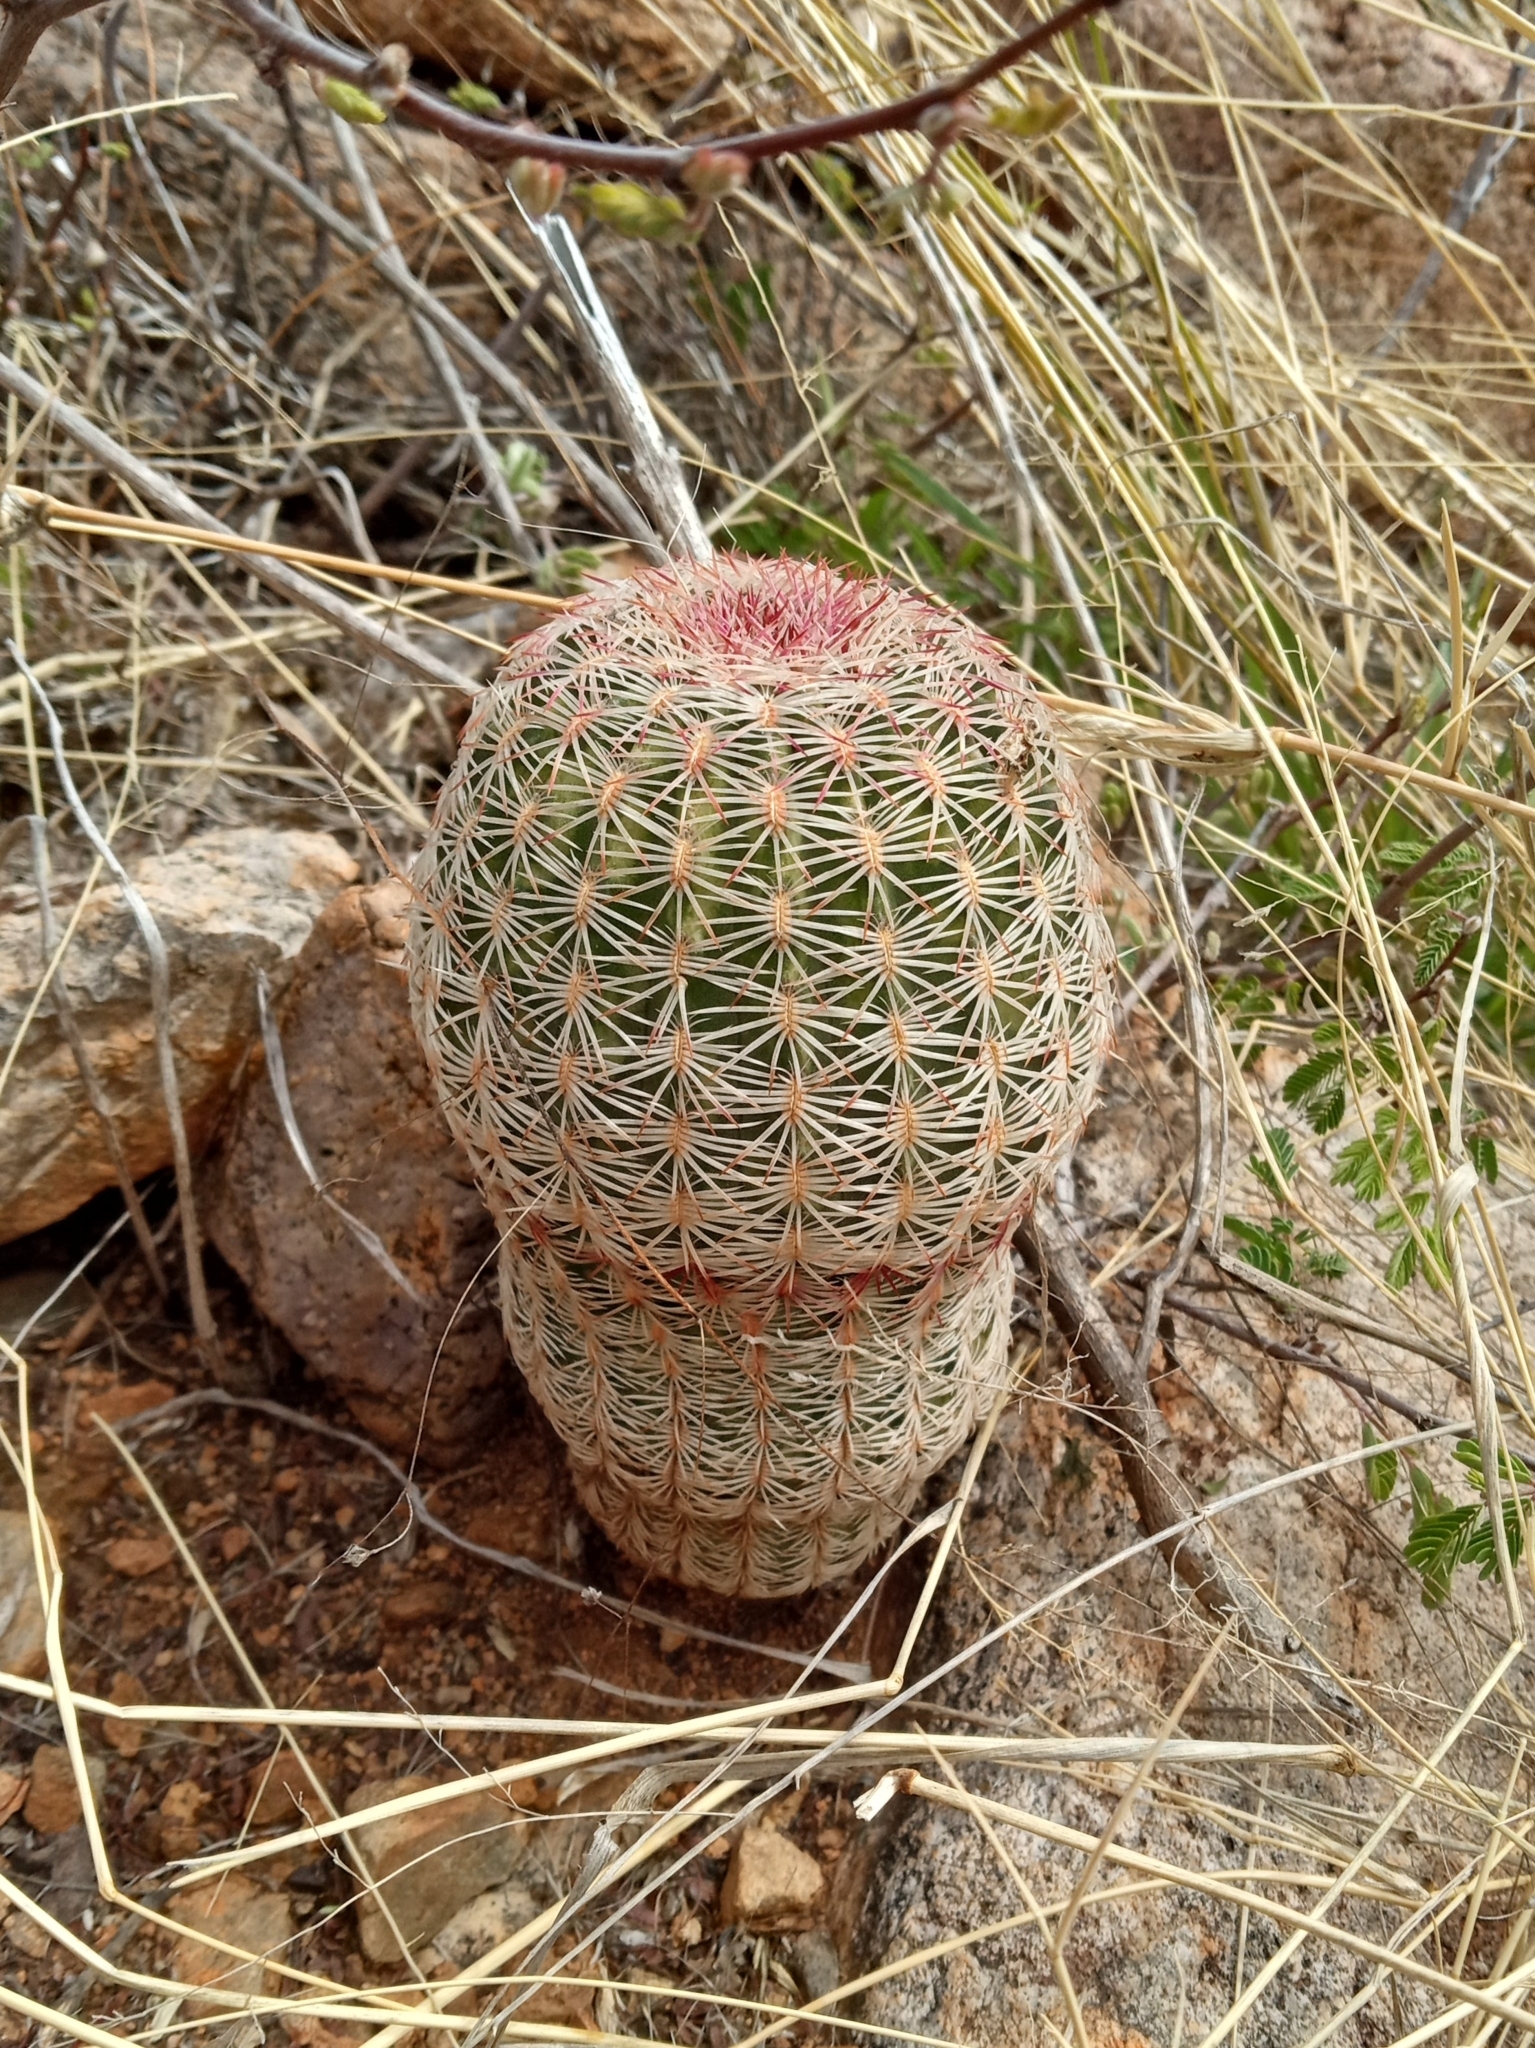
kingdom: Plantae
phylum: Tracheophyta
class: Magnoliopsida
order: Caryophyllales
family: Cactaceae
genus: Echinocereus
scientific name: Echinocereus rigidissimus
